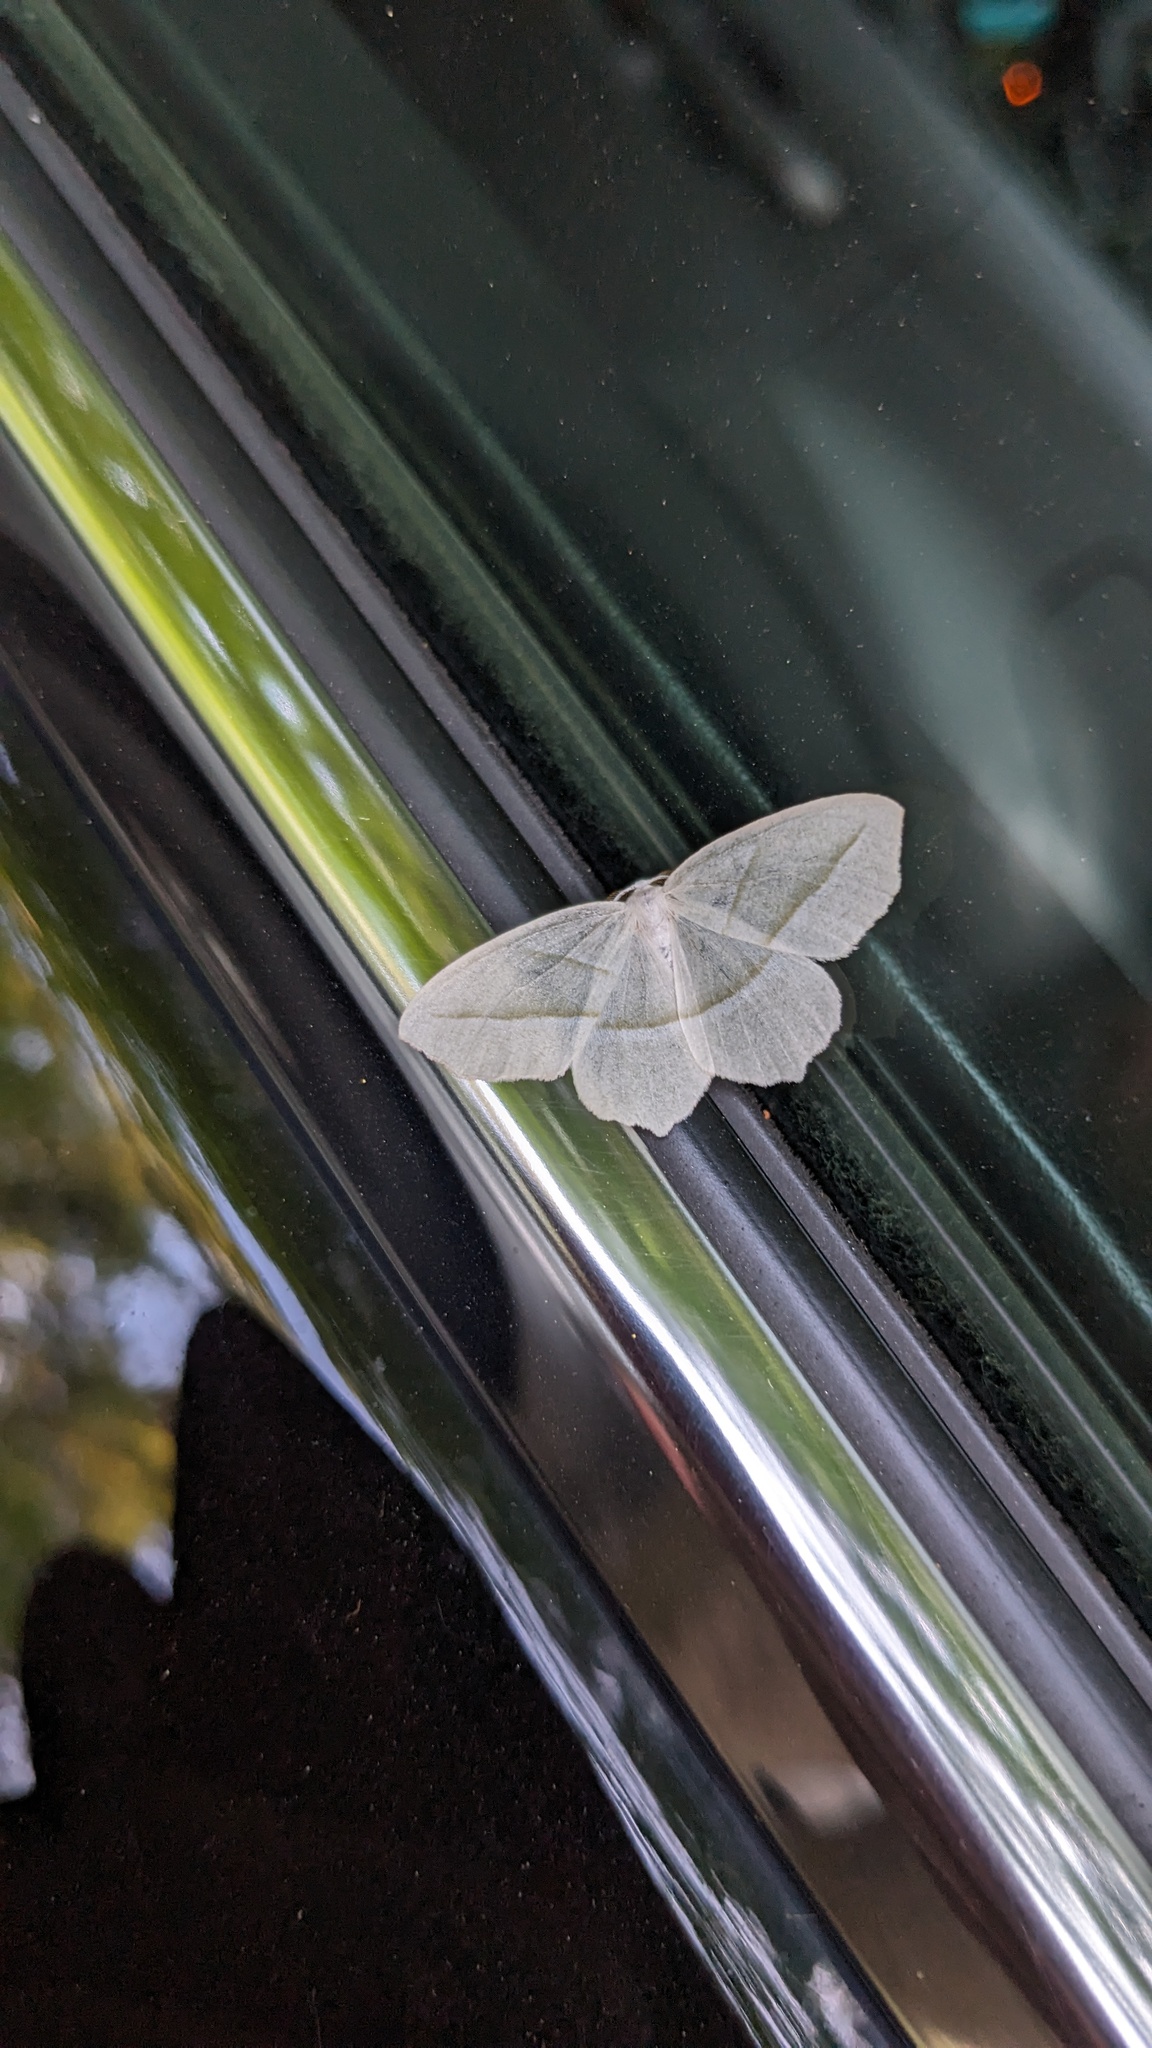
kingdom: Animalia
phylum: Arthropoda
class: Insecta
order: Lepidoptera
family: Geometridae
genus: Campaea
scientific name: Campaea perlata
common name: Fringed looper
